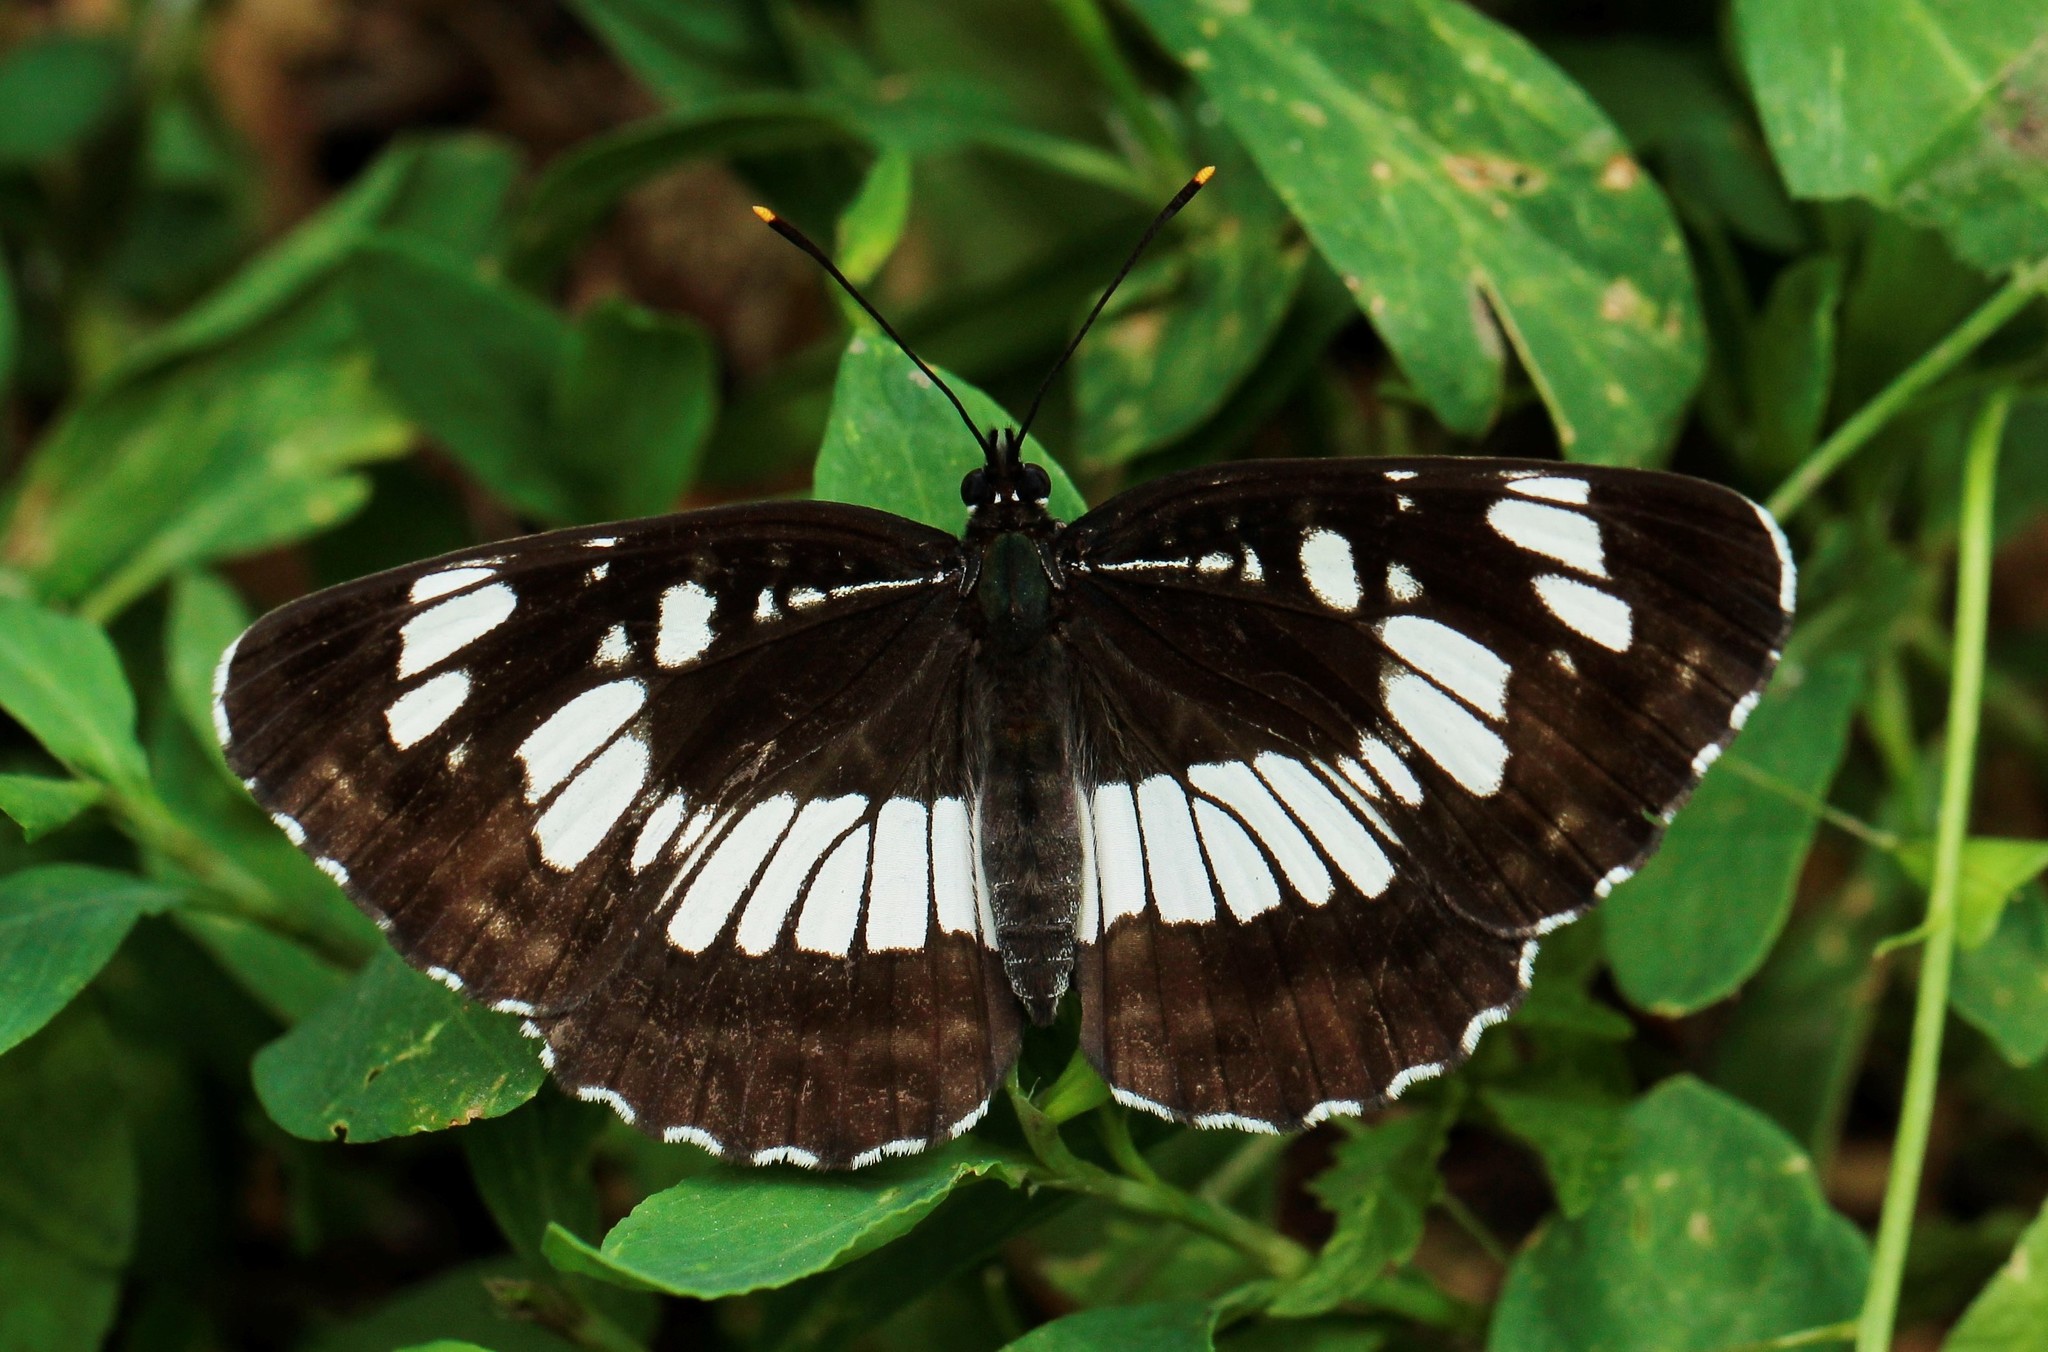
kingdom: Animalia
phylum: Arthropoda
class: Insecta
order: Lepidoptera
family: Nymphalidae
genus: Neptis
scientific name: Neptis rivularis
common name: Hungarian glider
